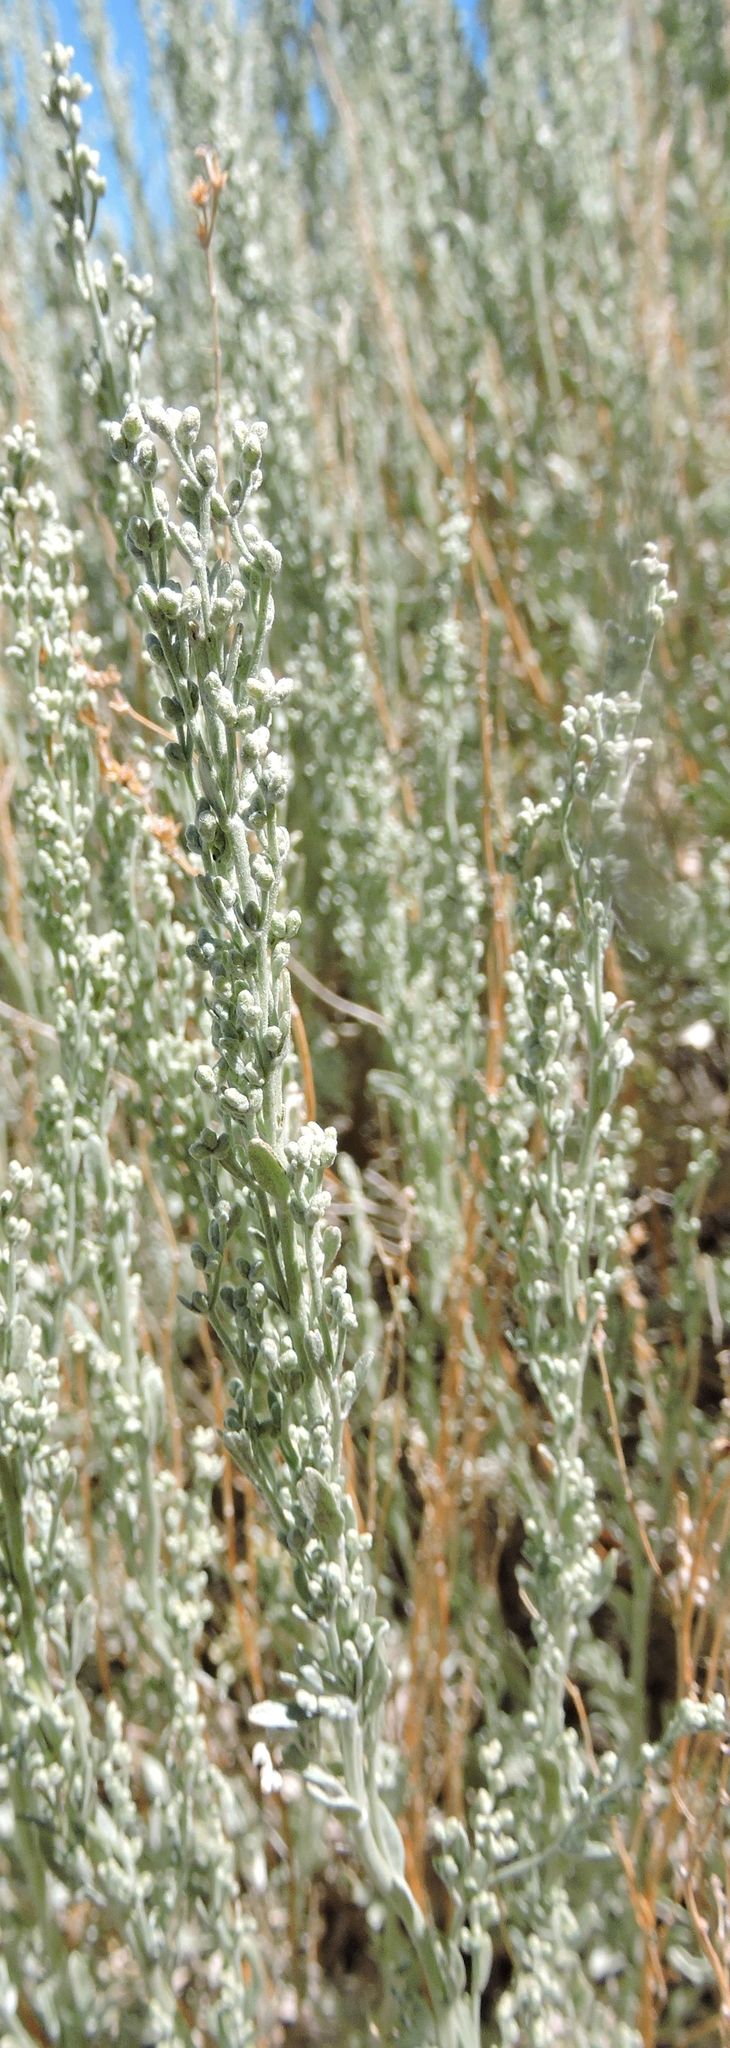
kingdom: Plantae
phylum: Tracheophyta
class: Magnoliopsida
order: Asterales
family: Asteraceae
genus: Artemisia
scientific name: Artemisia tridentata
